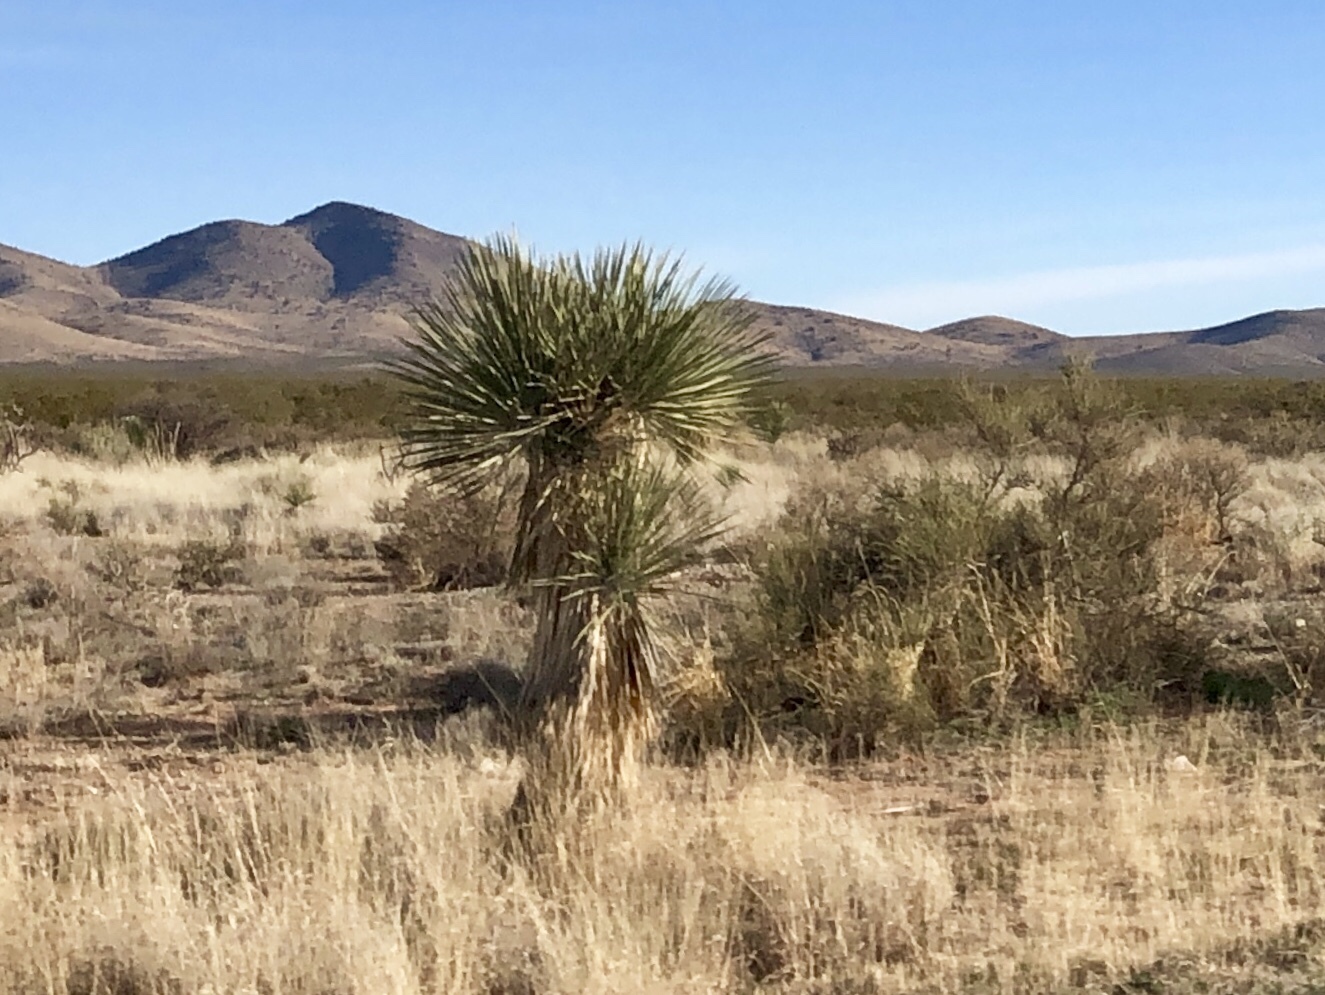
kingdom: Plantae
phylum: Tracheophyta
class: Liliopsida
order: Asparagales
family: Asparagaceae
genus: Yucca
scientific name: Yucca elata
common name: Palmella
